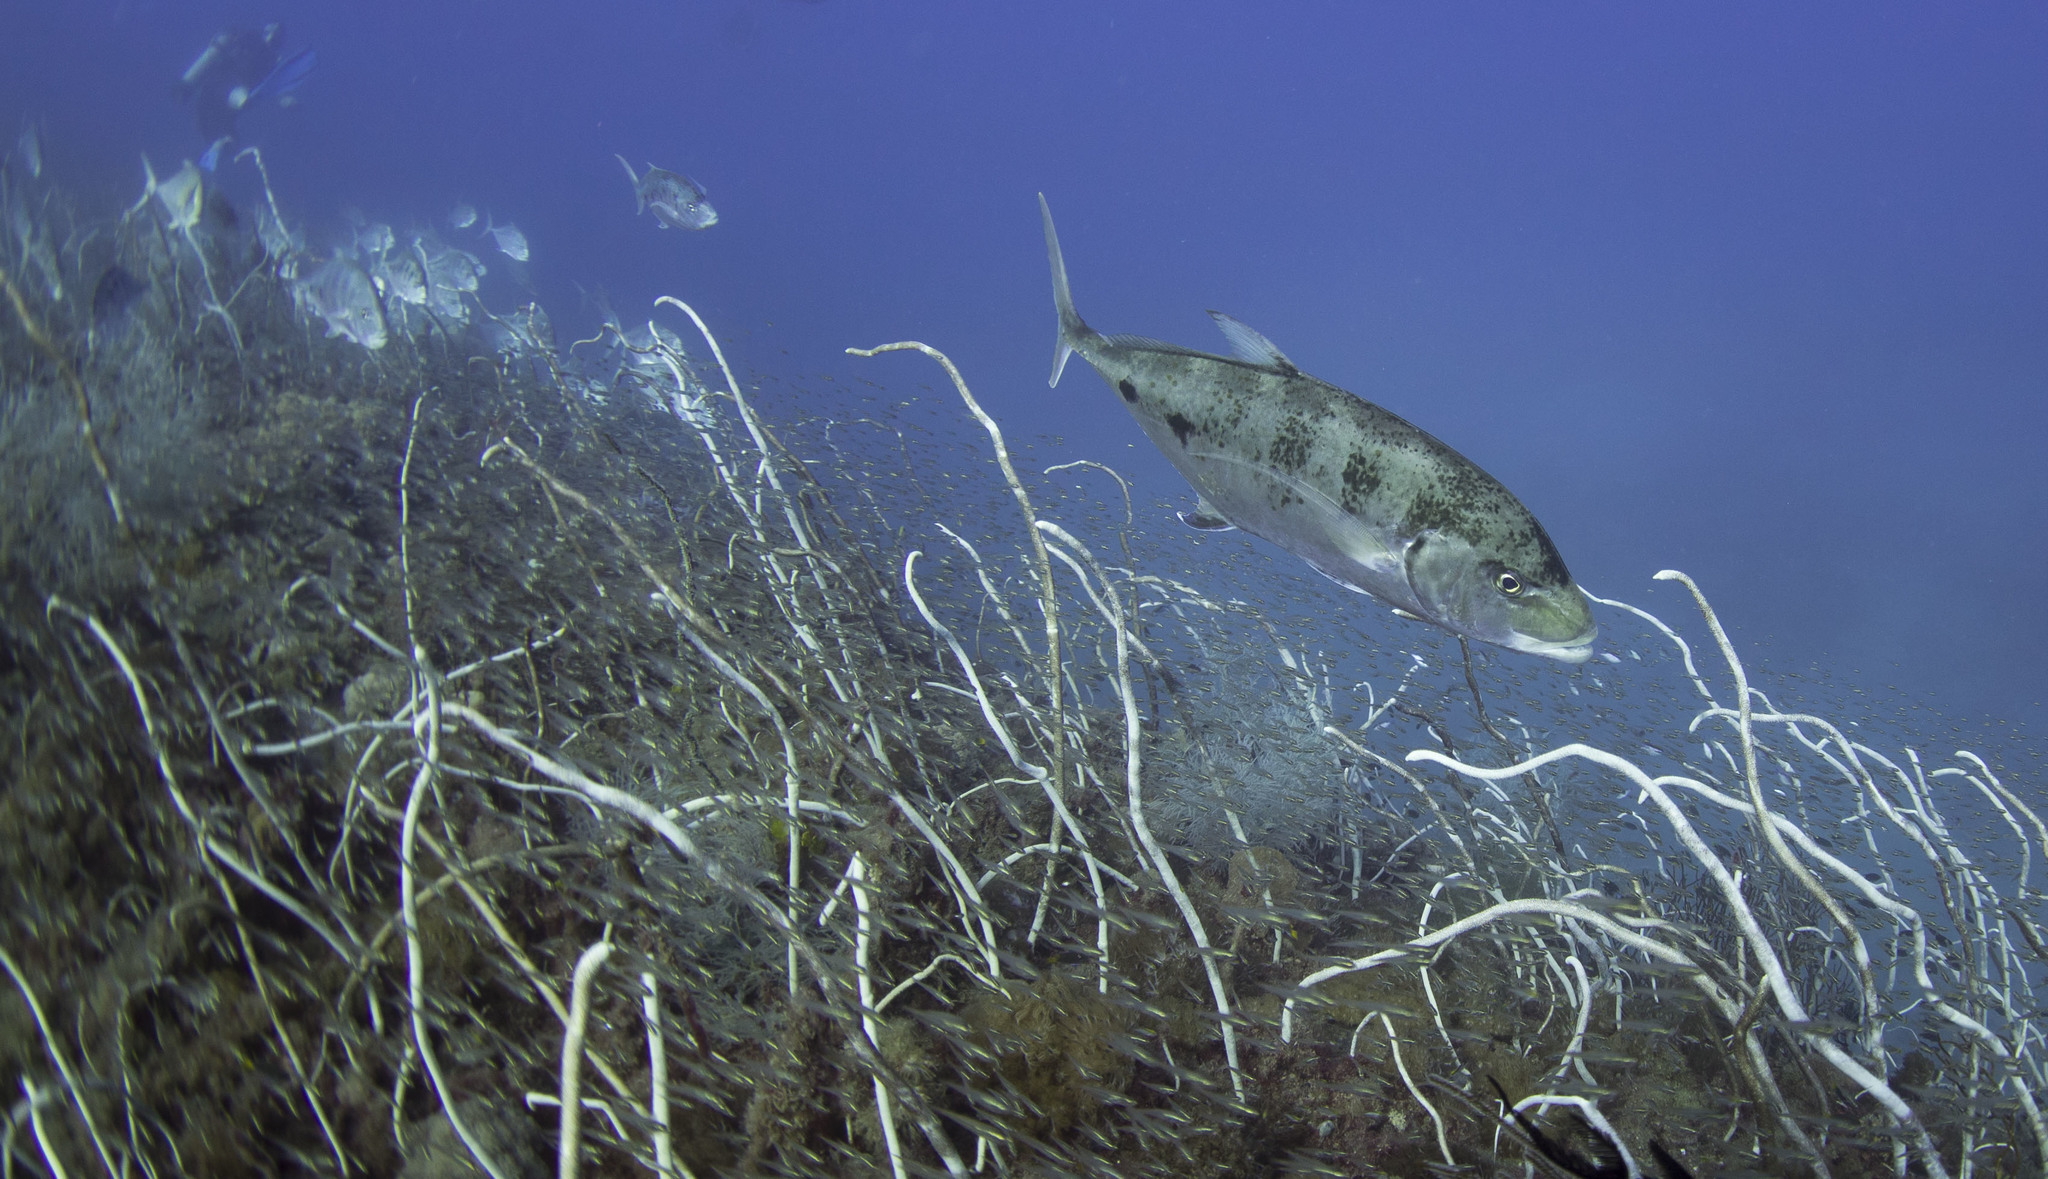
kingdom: Animalia
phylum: Chordata
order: Perciformes
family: Carangidae
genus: Carangoides
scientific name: Carangoides Turrum fulvoguttatum
